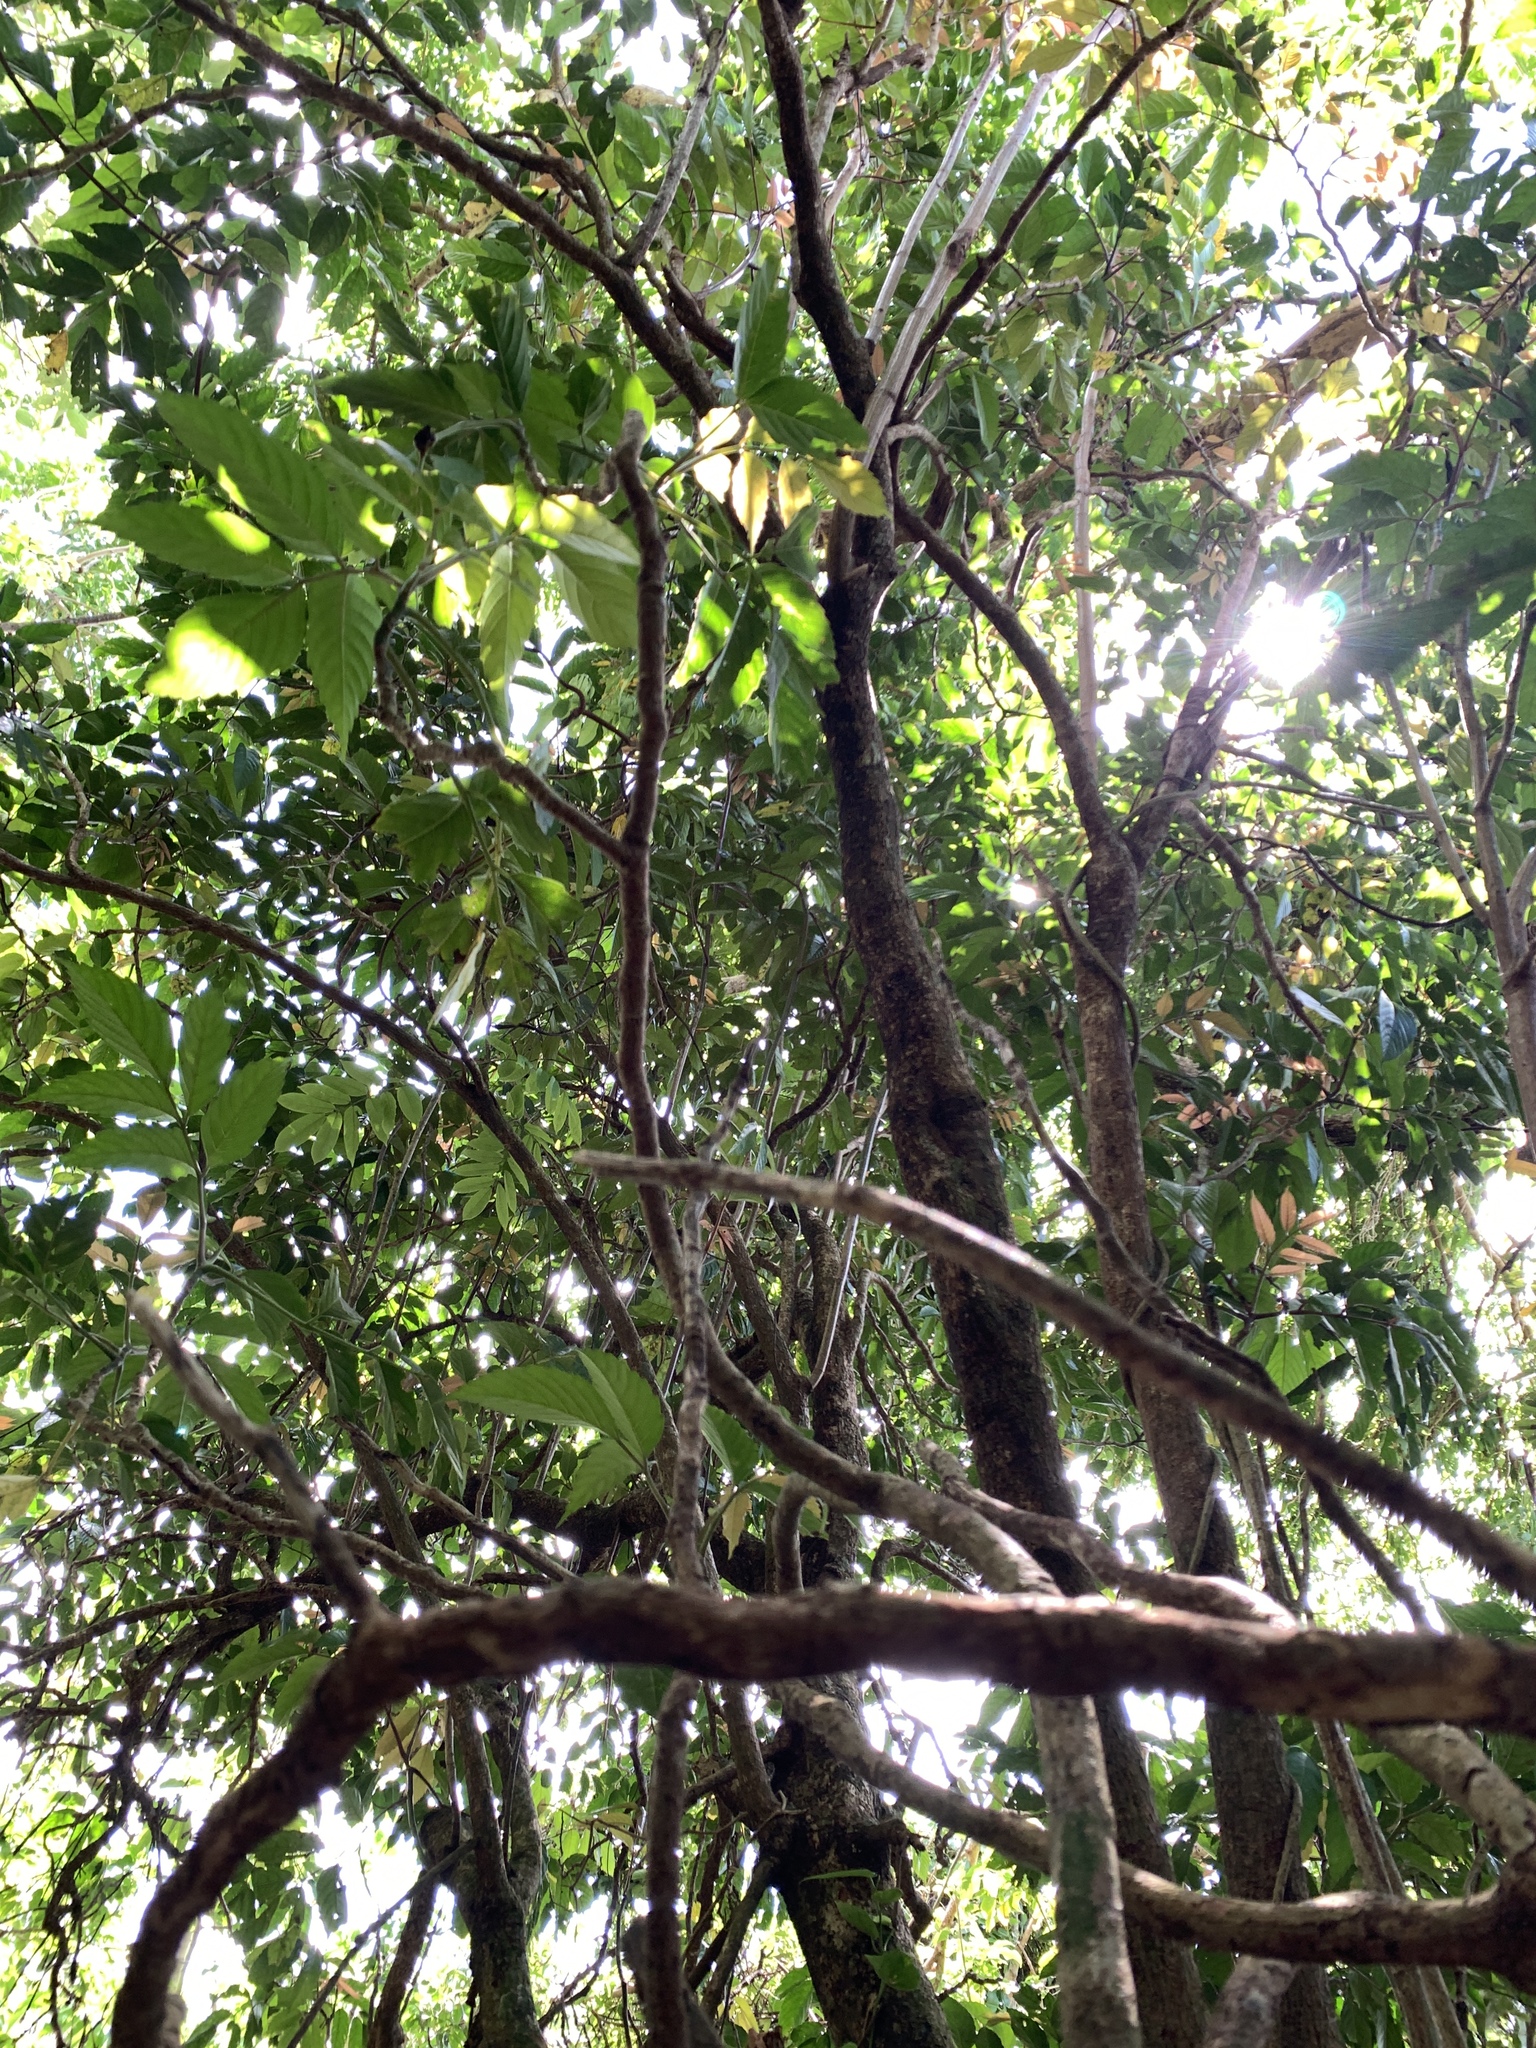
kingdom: Plantae
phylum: Tracheophyta
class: Magnoliopsida
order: Vitales
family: Vitaceae
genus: Leea
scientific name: Leea philippinensis
